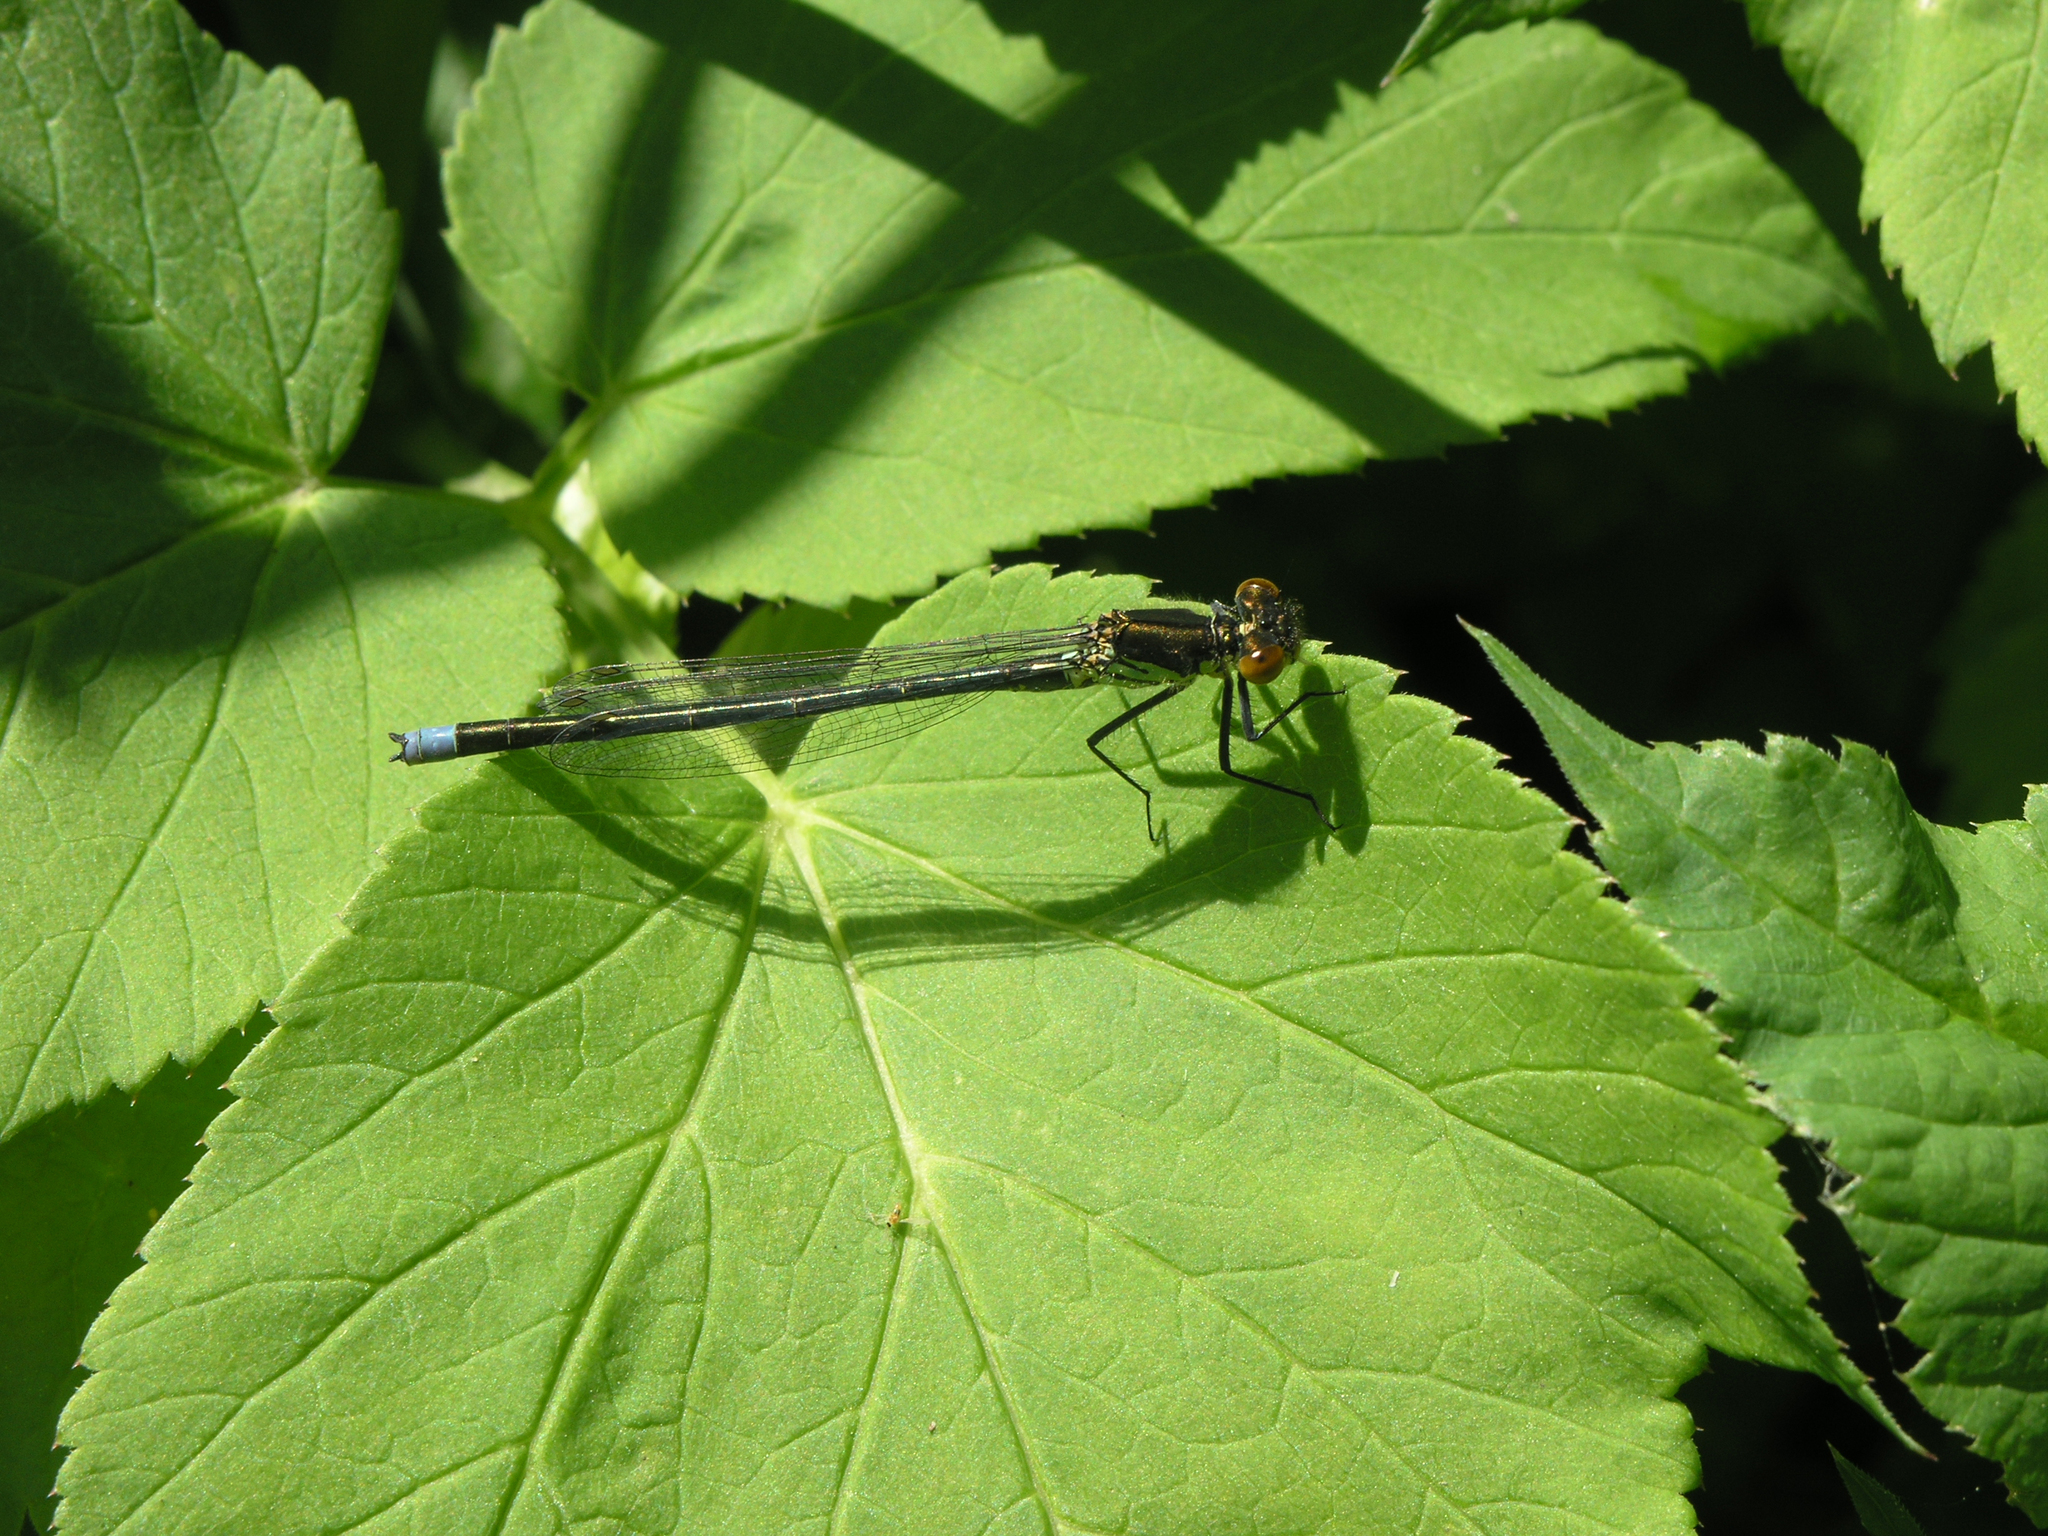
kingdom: Plantae
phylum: Tracheophyta
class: Magnoliopsida
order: Apiales
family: Apiaceae
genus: Aegopodium
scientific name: Aegopodium podagraria
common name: Ground-elder
